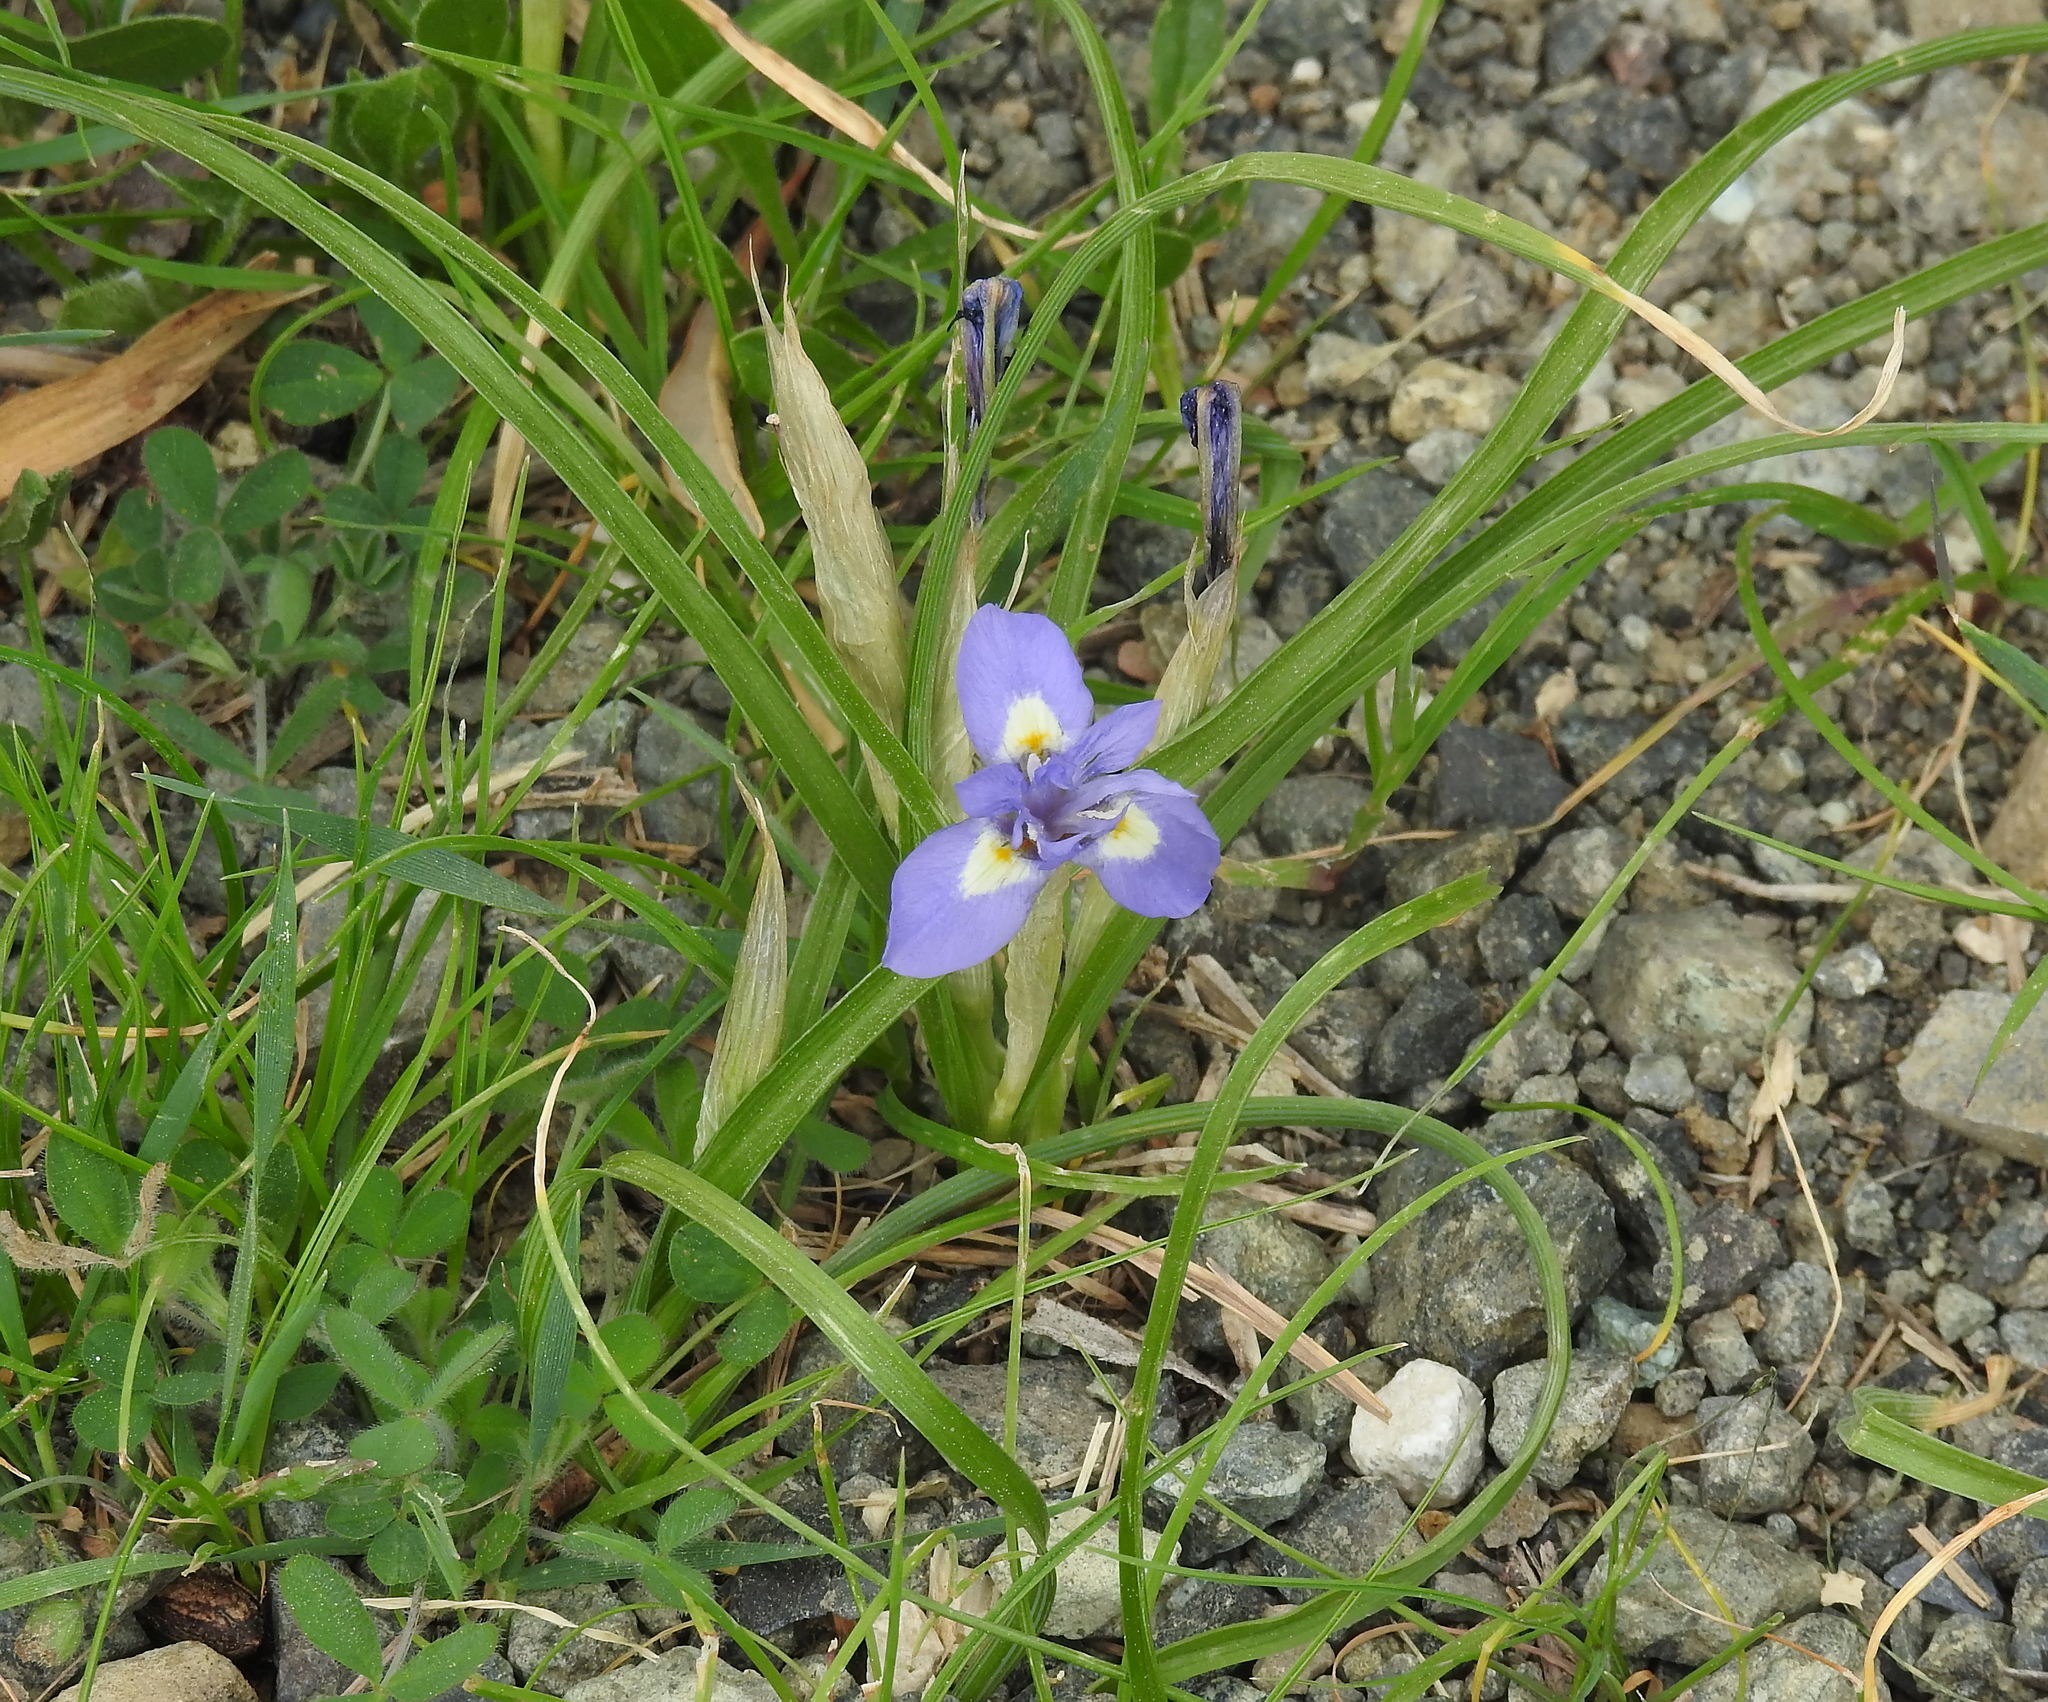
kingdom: Plantae
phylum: Tracheophyta
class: Liliopsida
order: Asparagales
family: Iridaceae
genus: Moraea
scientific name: Moraea sisyrinchium
